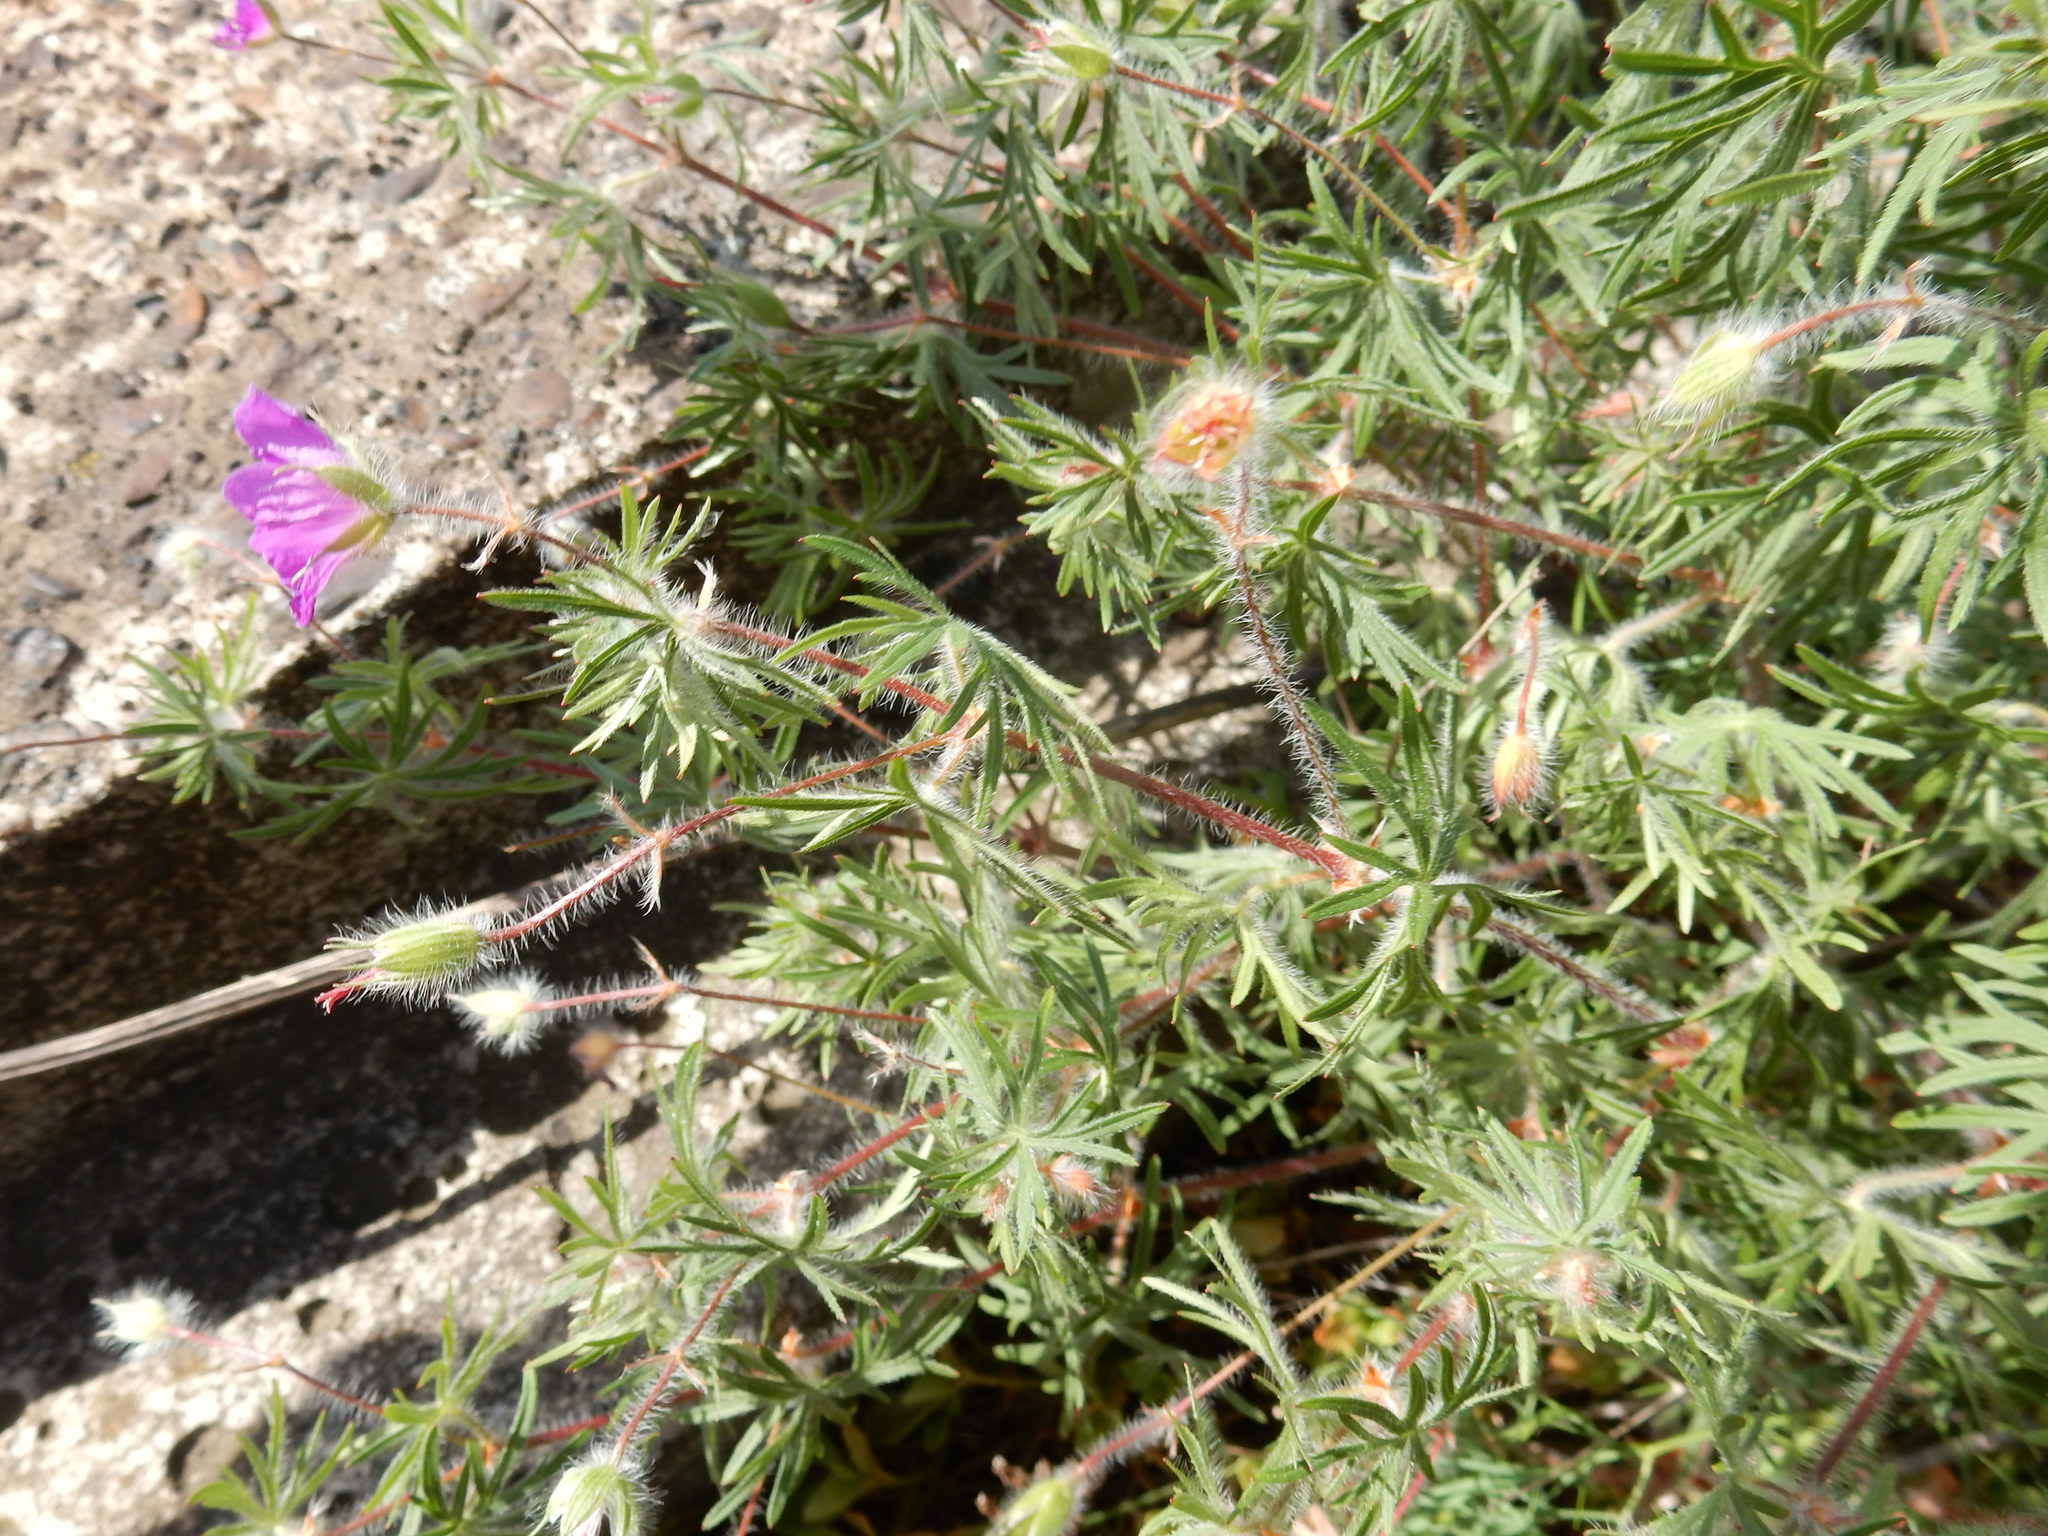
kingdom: Plantae
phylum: Tracheophyta
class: Magnoliopsida
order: Geraniales
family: Geraniaceae
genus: Geranium
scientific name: Geranium sanguineum
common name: Bloody crane's-bill
